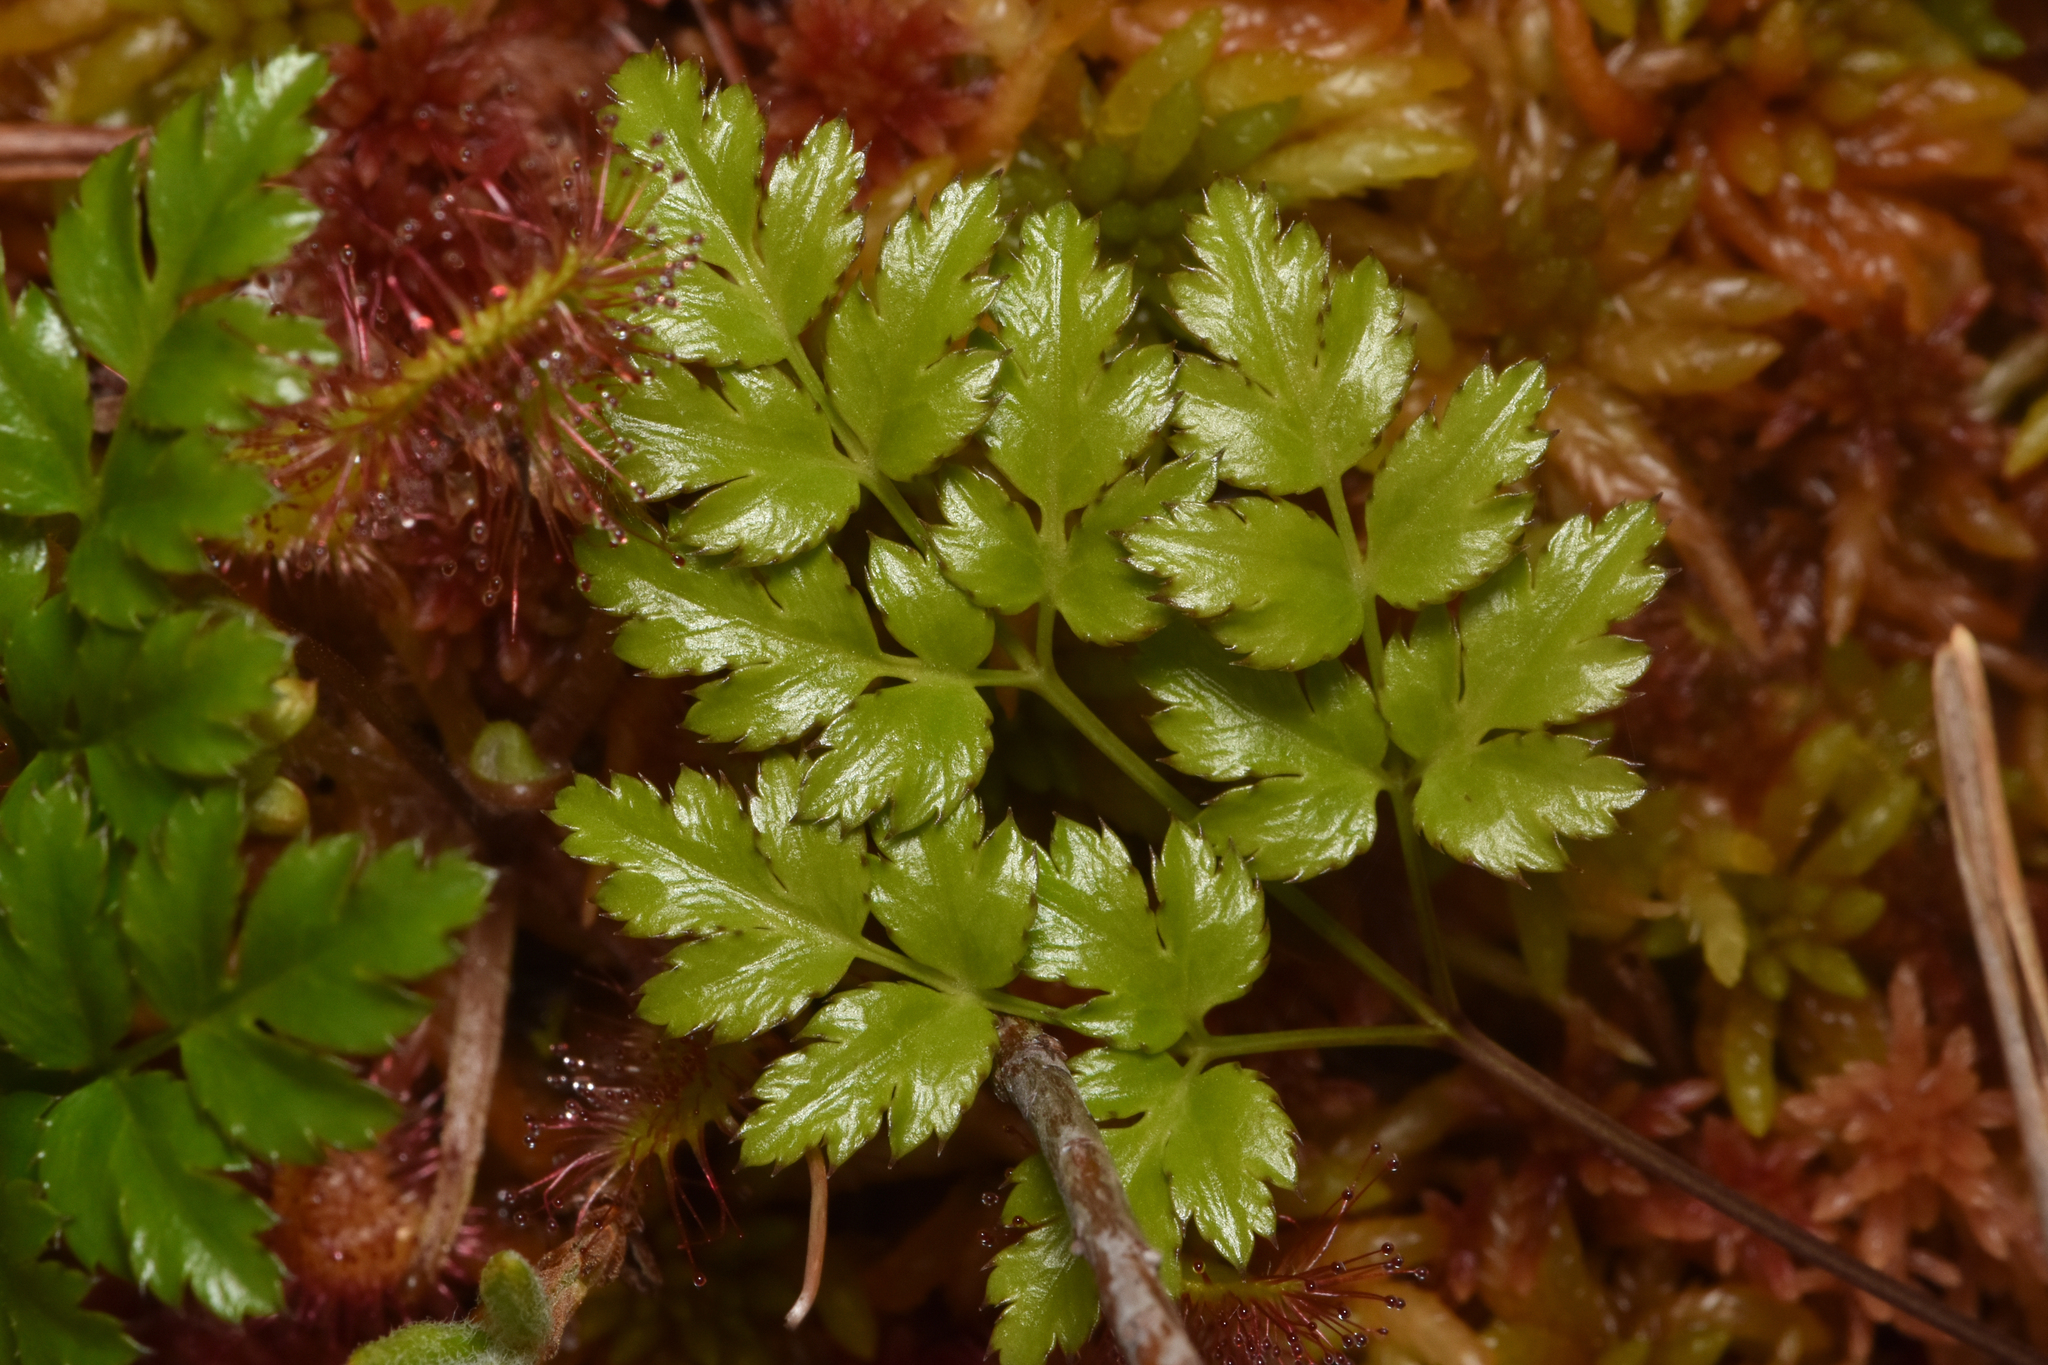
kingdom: Plantae
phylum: Tracheophyta
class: Magnoliopsida
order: Ranunculales
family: Ranunculaceae
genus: Coptis
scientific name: Coptis aspleniifolia
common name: Fern-leaved goldthread
